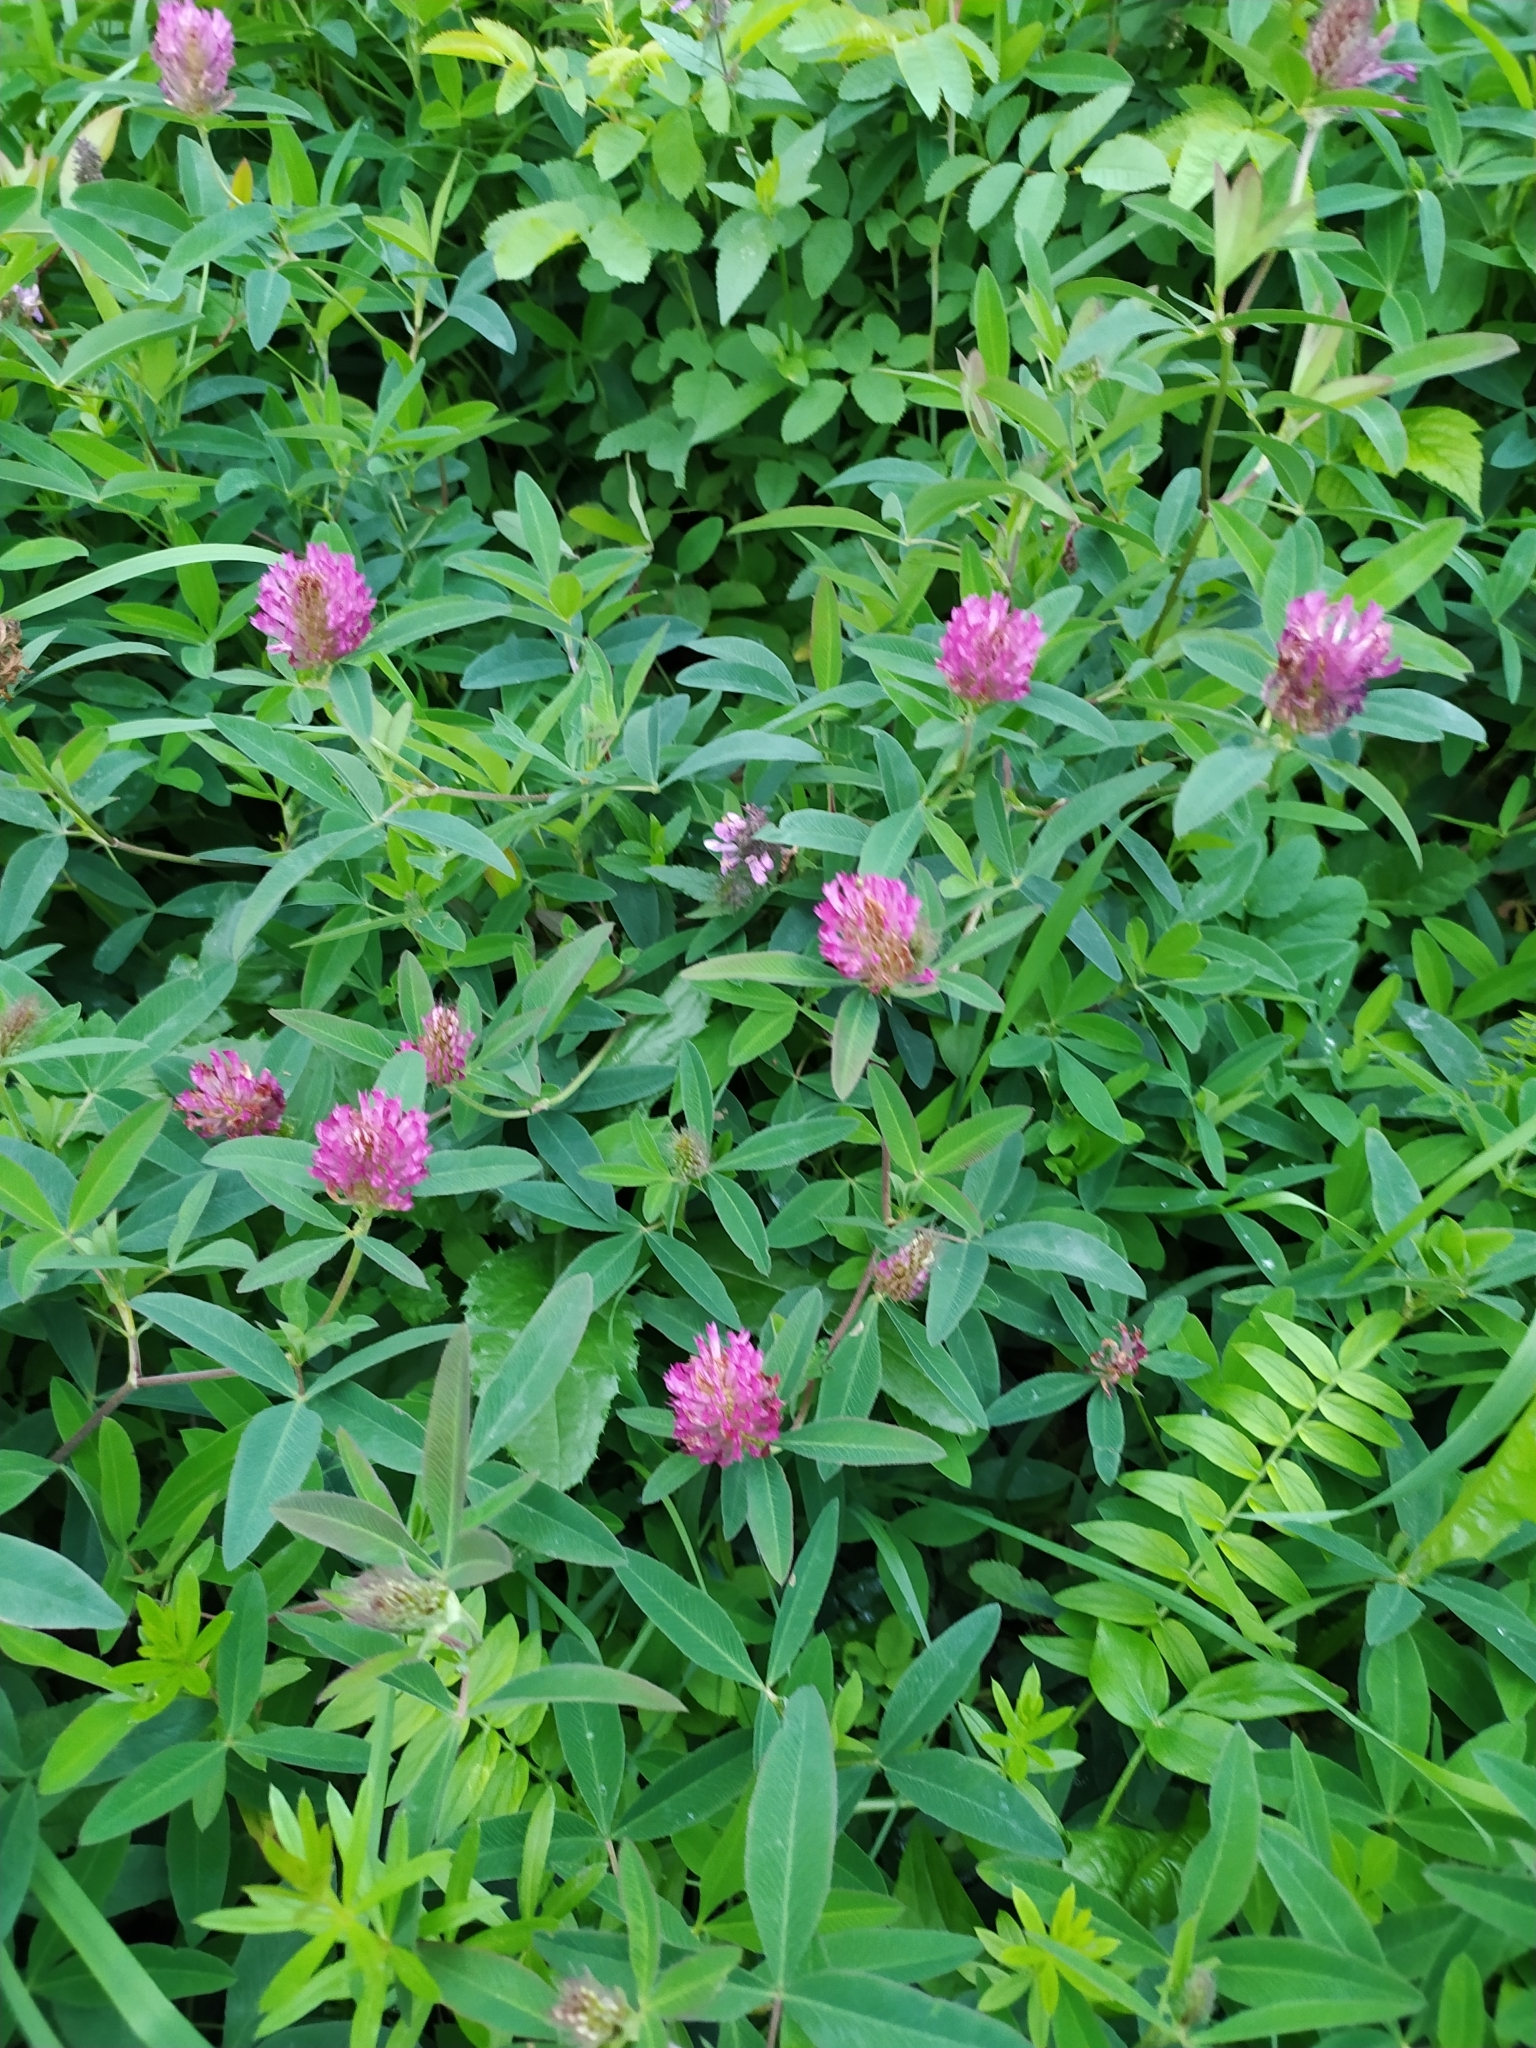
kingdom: Plantae
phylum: Tracheophyta
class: Magnoliopsida
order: Fabales
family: Fabaceae
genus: Trifolium
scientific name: Trifolium medium
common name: Zigzag clover
